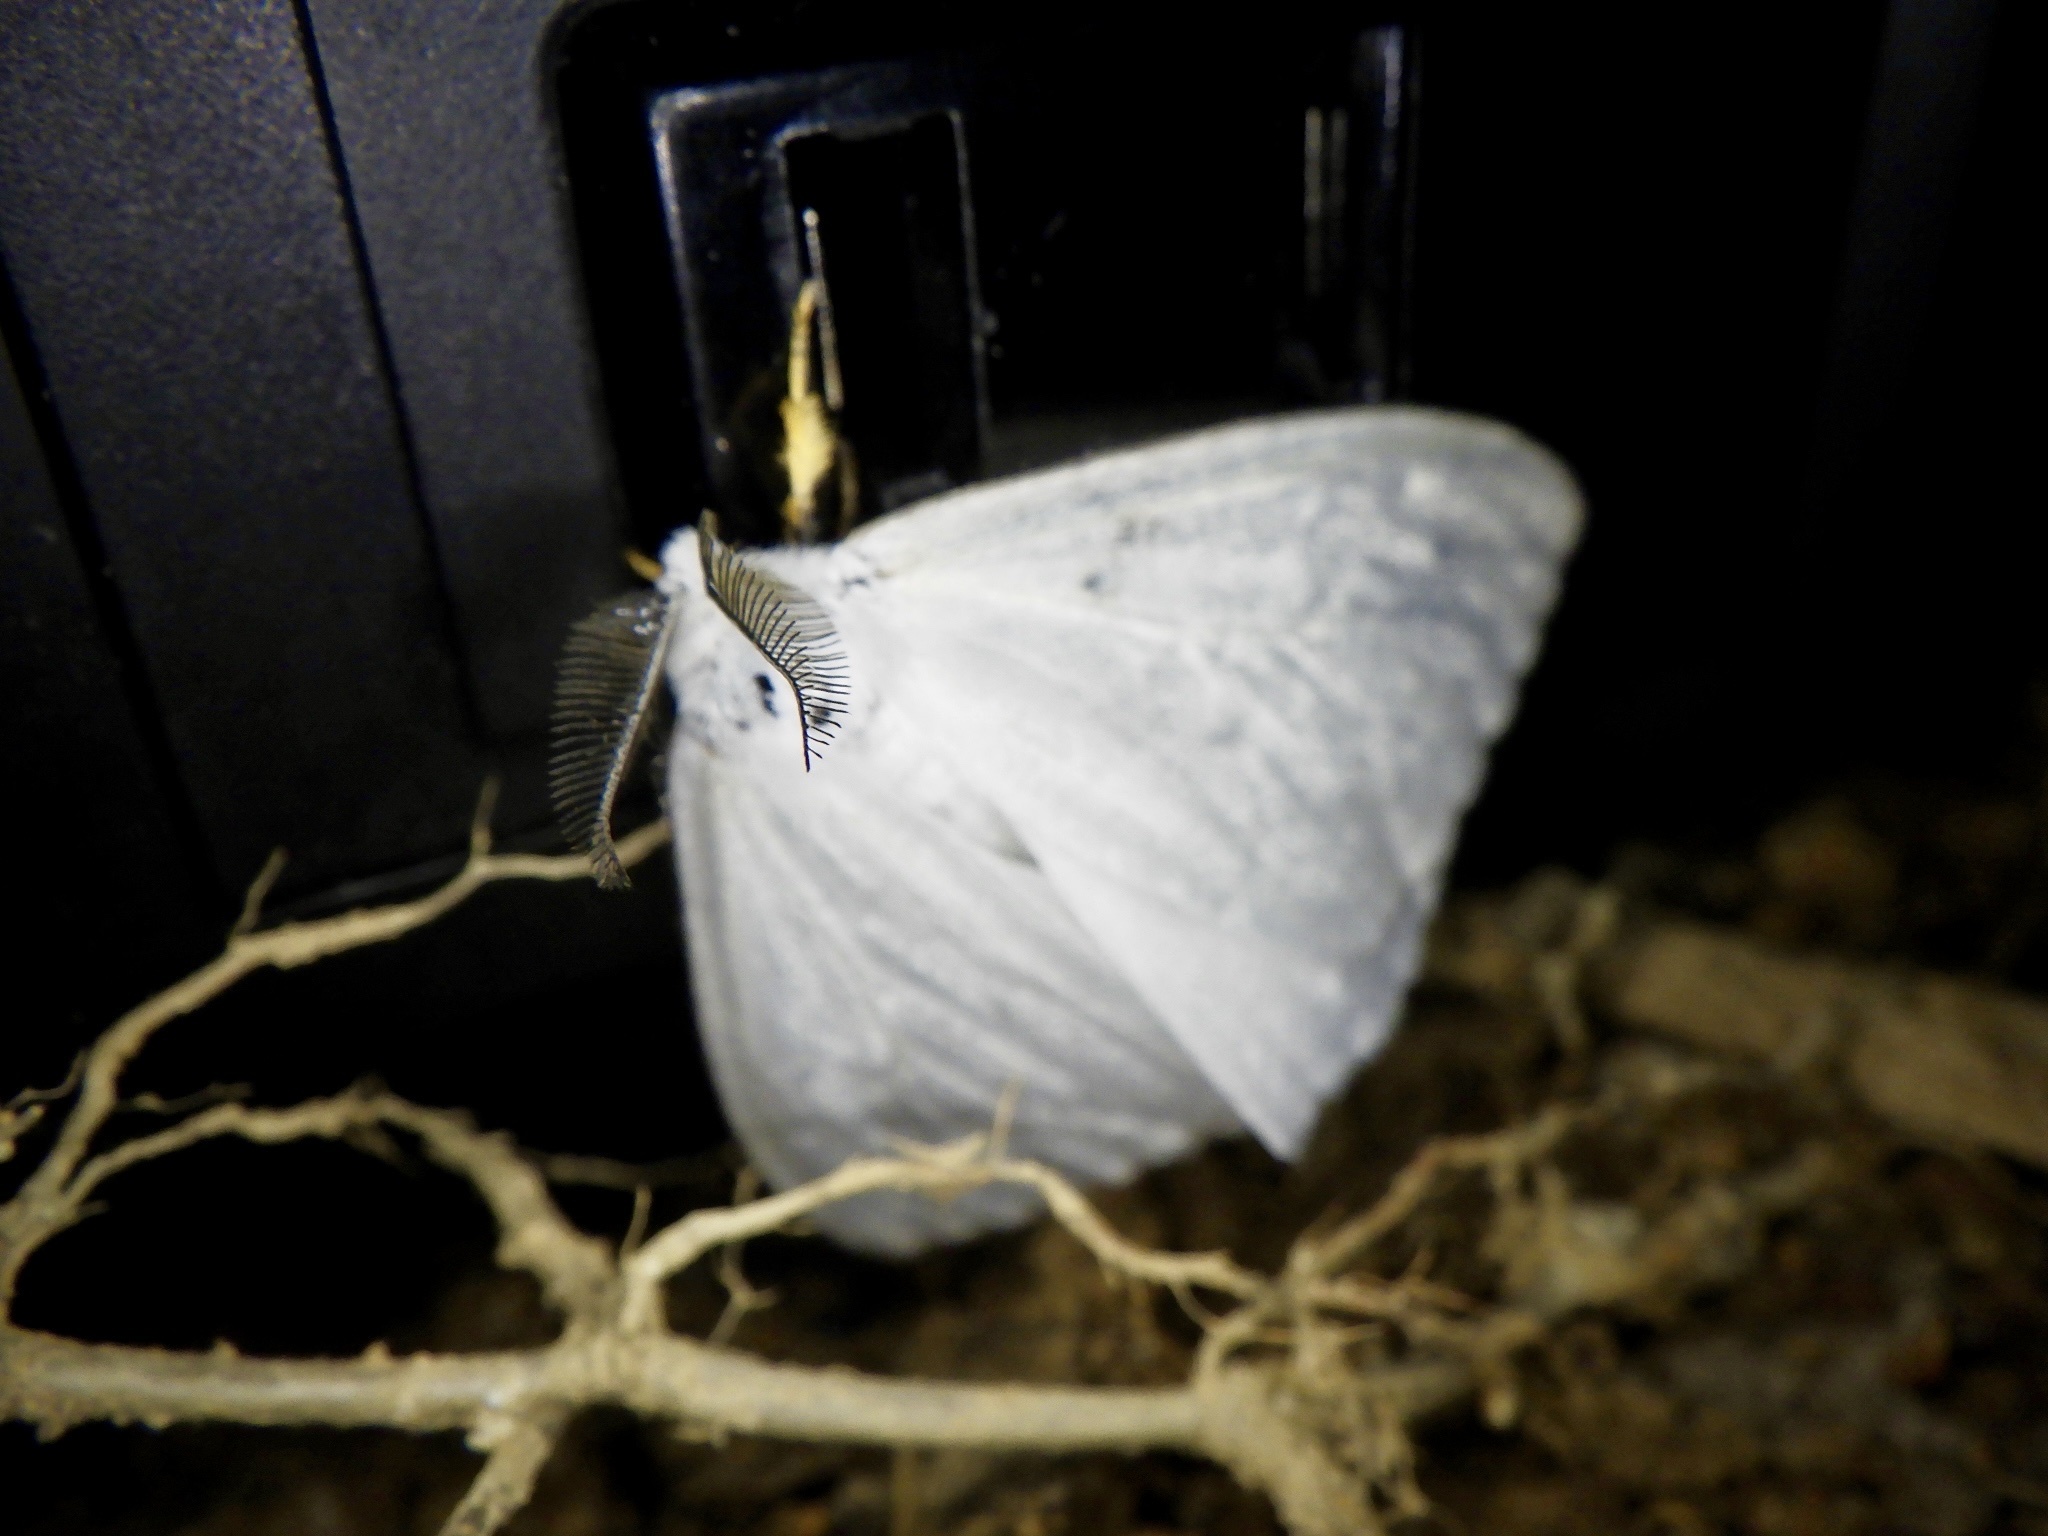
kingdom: Animalia
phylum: Arthropoda
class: Insecta
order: Lepidoptera
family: Erebidae
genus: Ivela
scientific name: Ivela auripes
